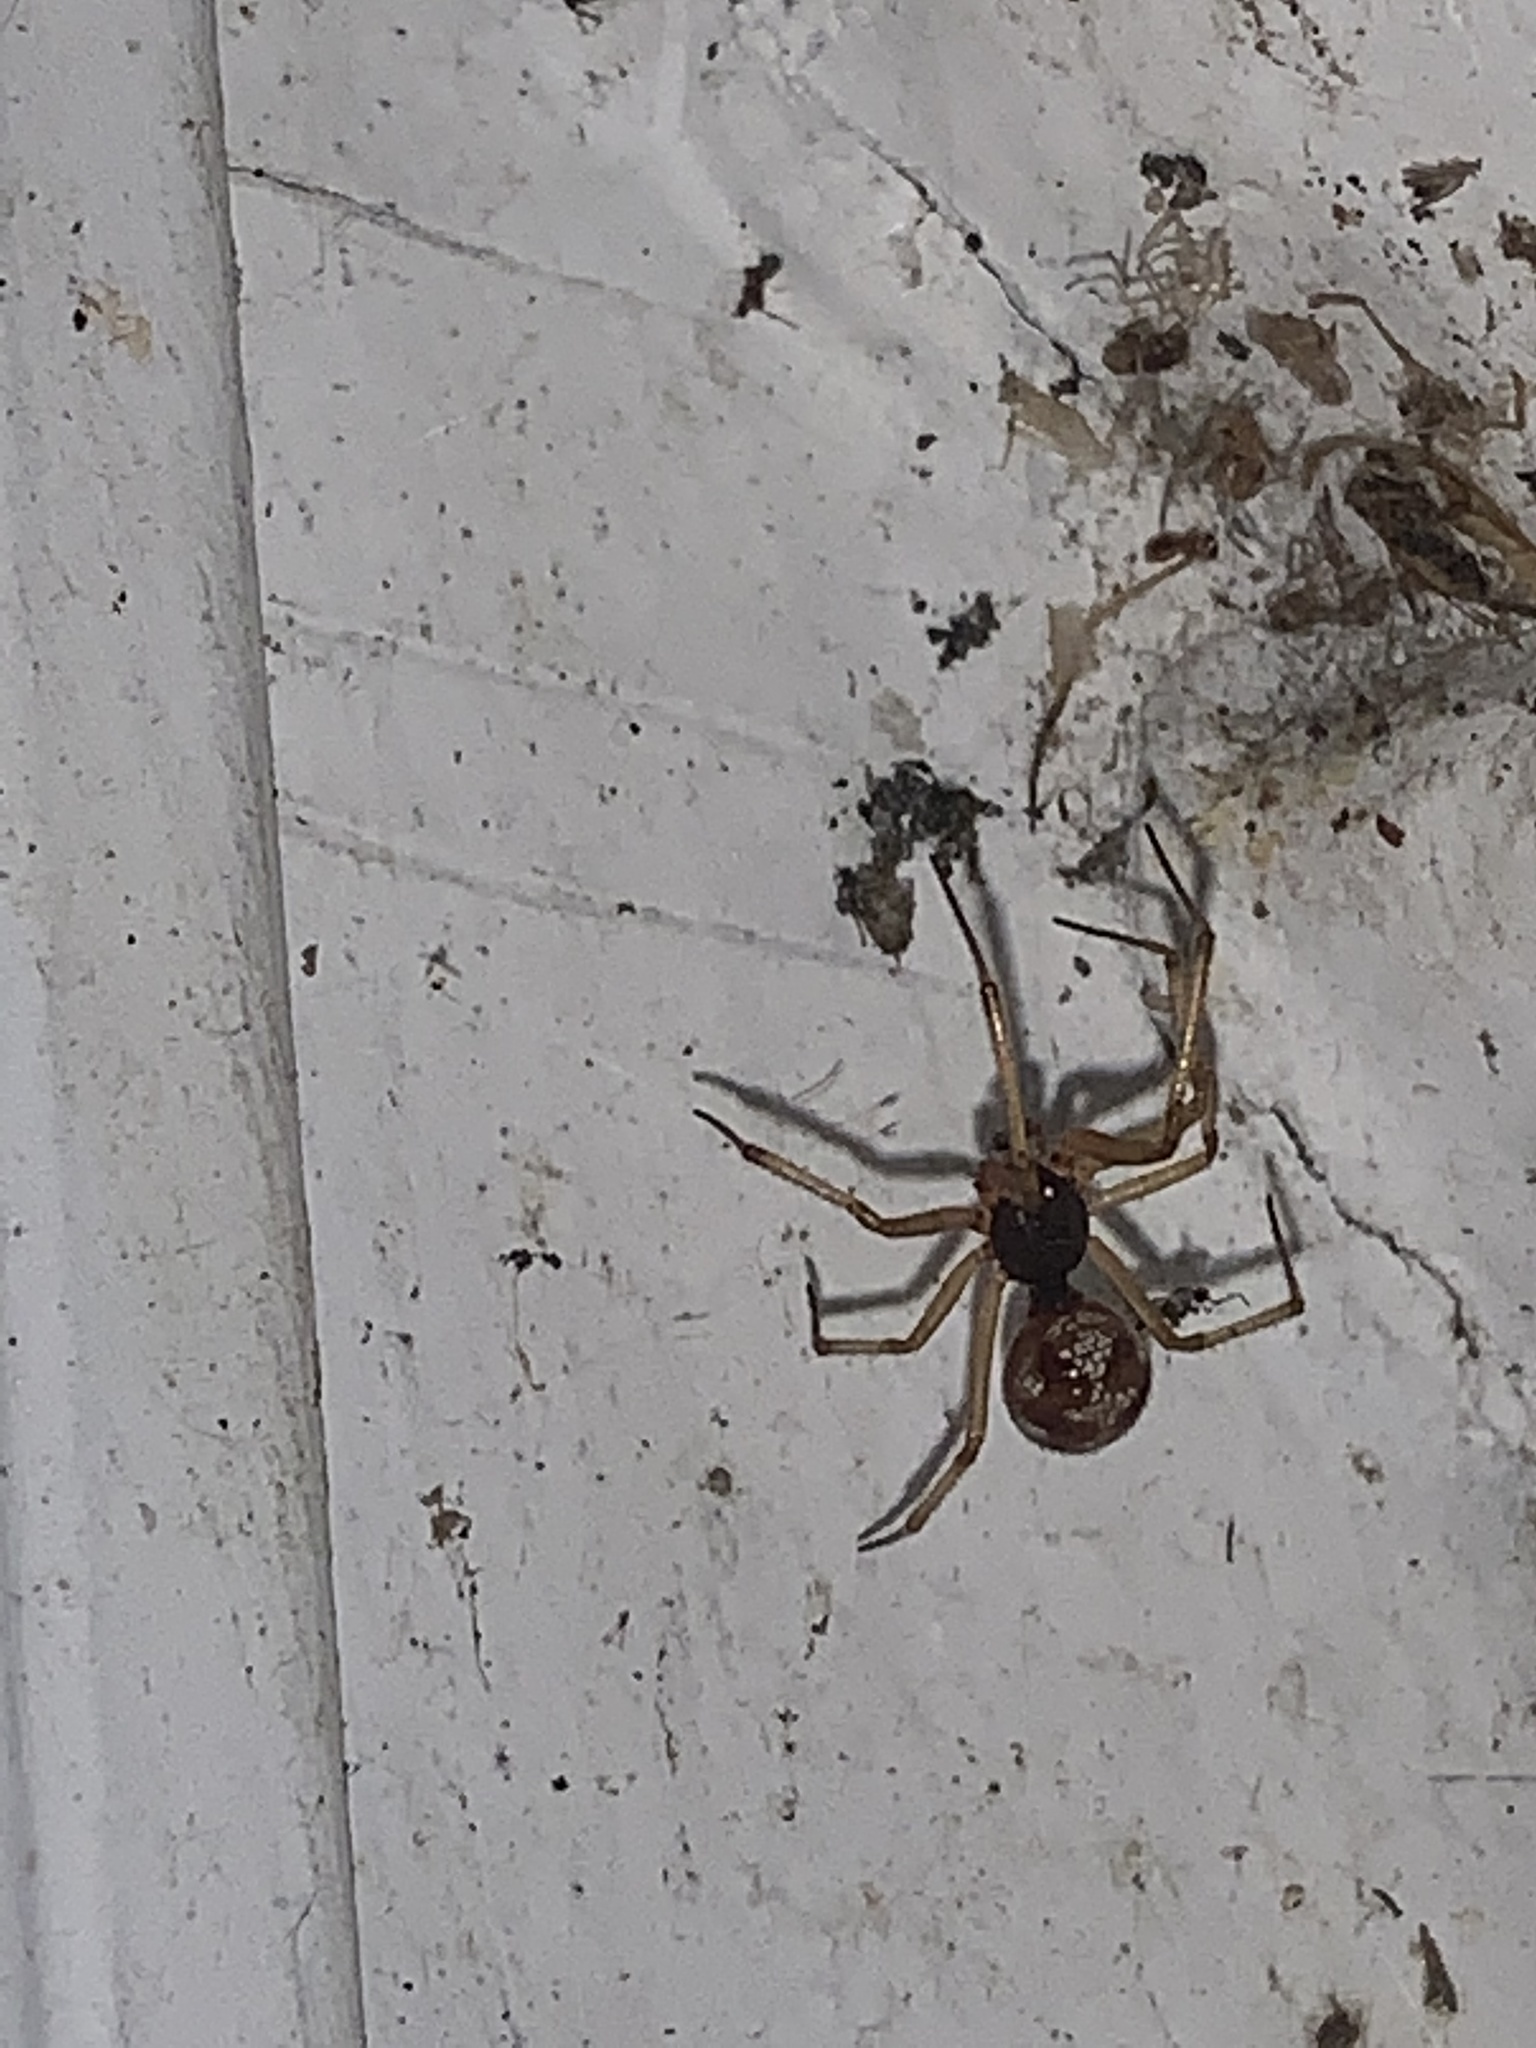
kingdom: Animalia
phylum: Arthropoda
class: Arachnida
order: Araneae
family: Theridiidae
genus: Steatoda
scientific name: Steatoda triangulosa
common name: Triangulate bud spider
